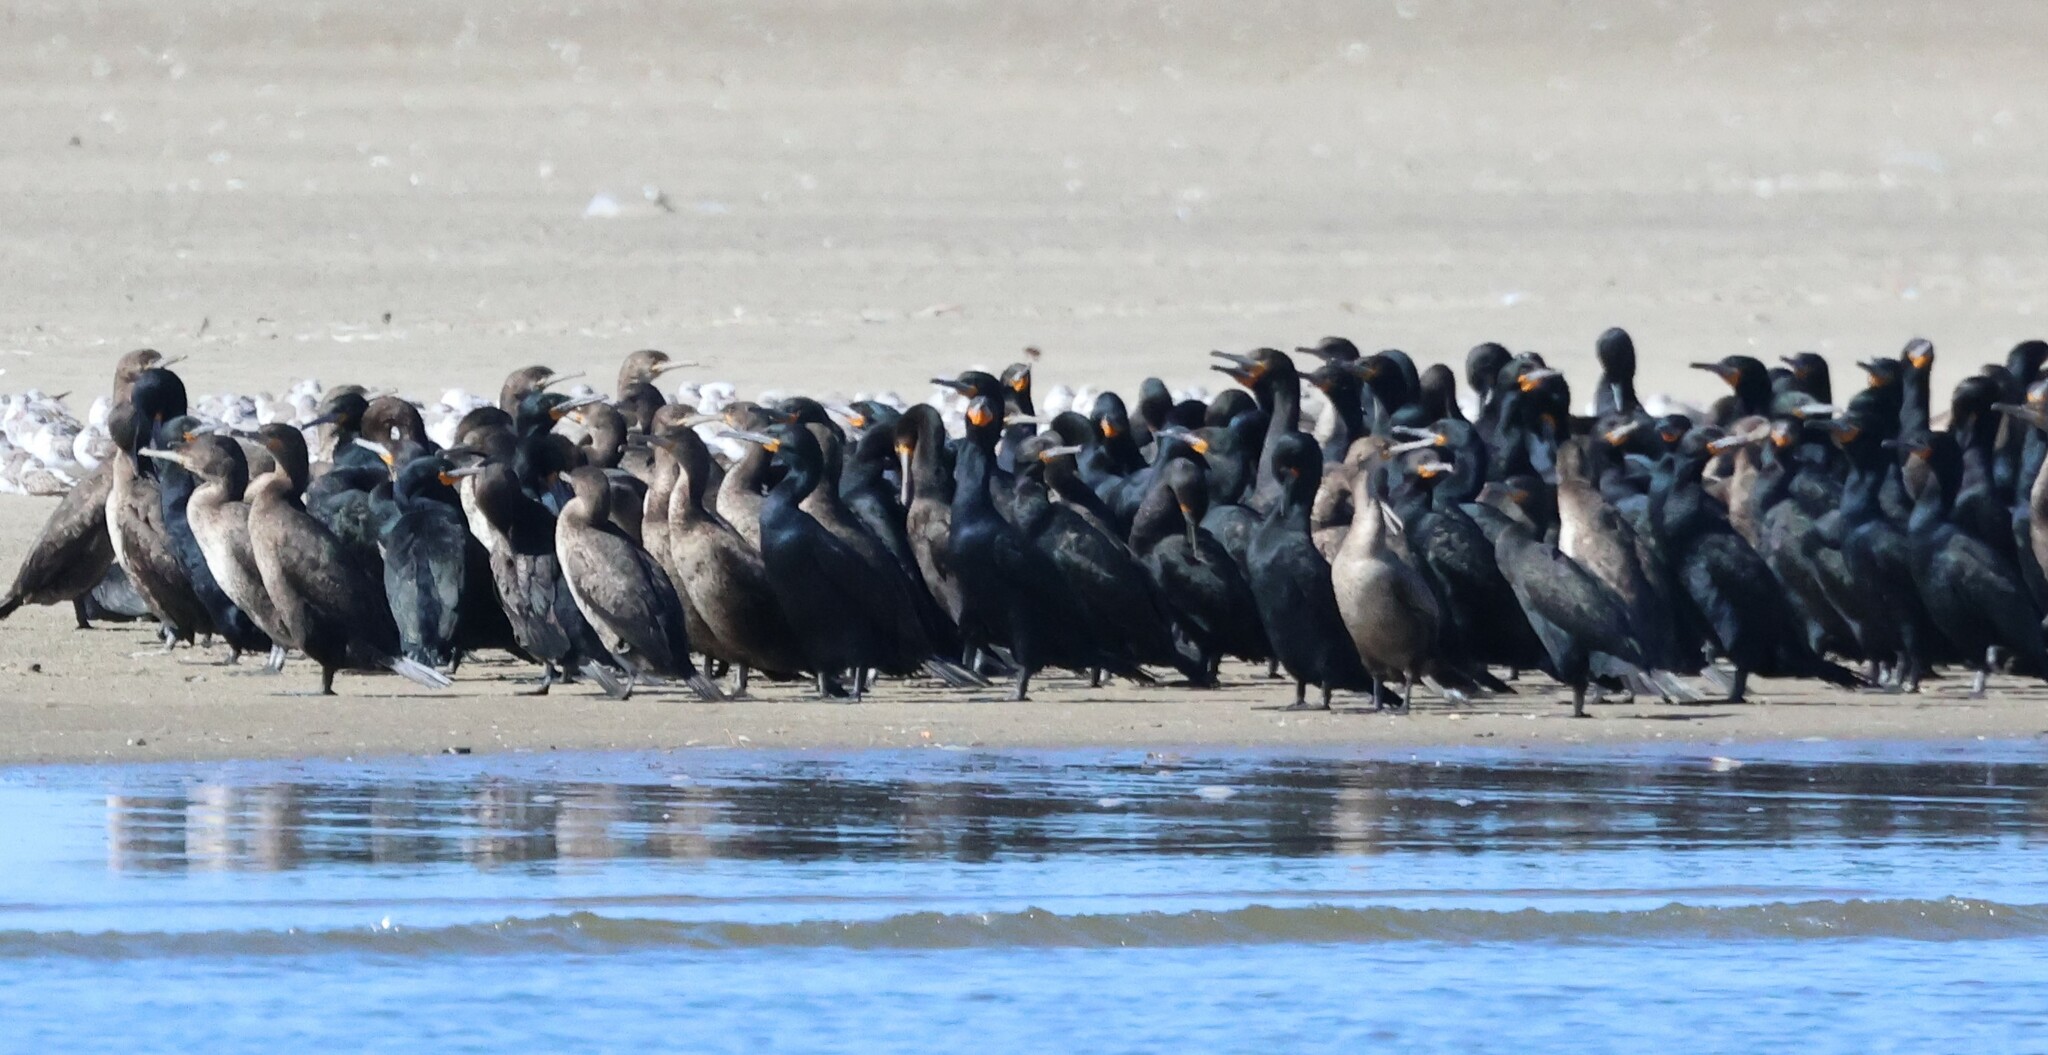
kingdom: Animalia
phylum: Chordata
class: Aves
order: Suliformes
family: Phalacrocoracidae
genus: Phalacrocorax
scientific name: Phalacrocorax capensis
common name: Cape cormorant
